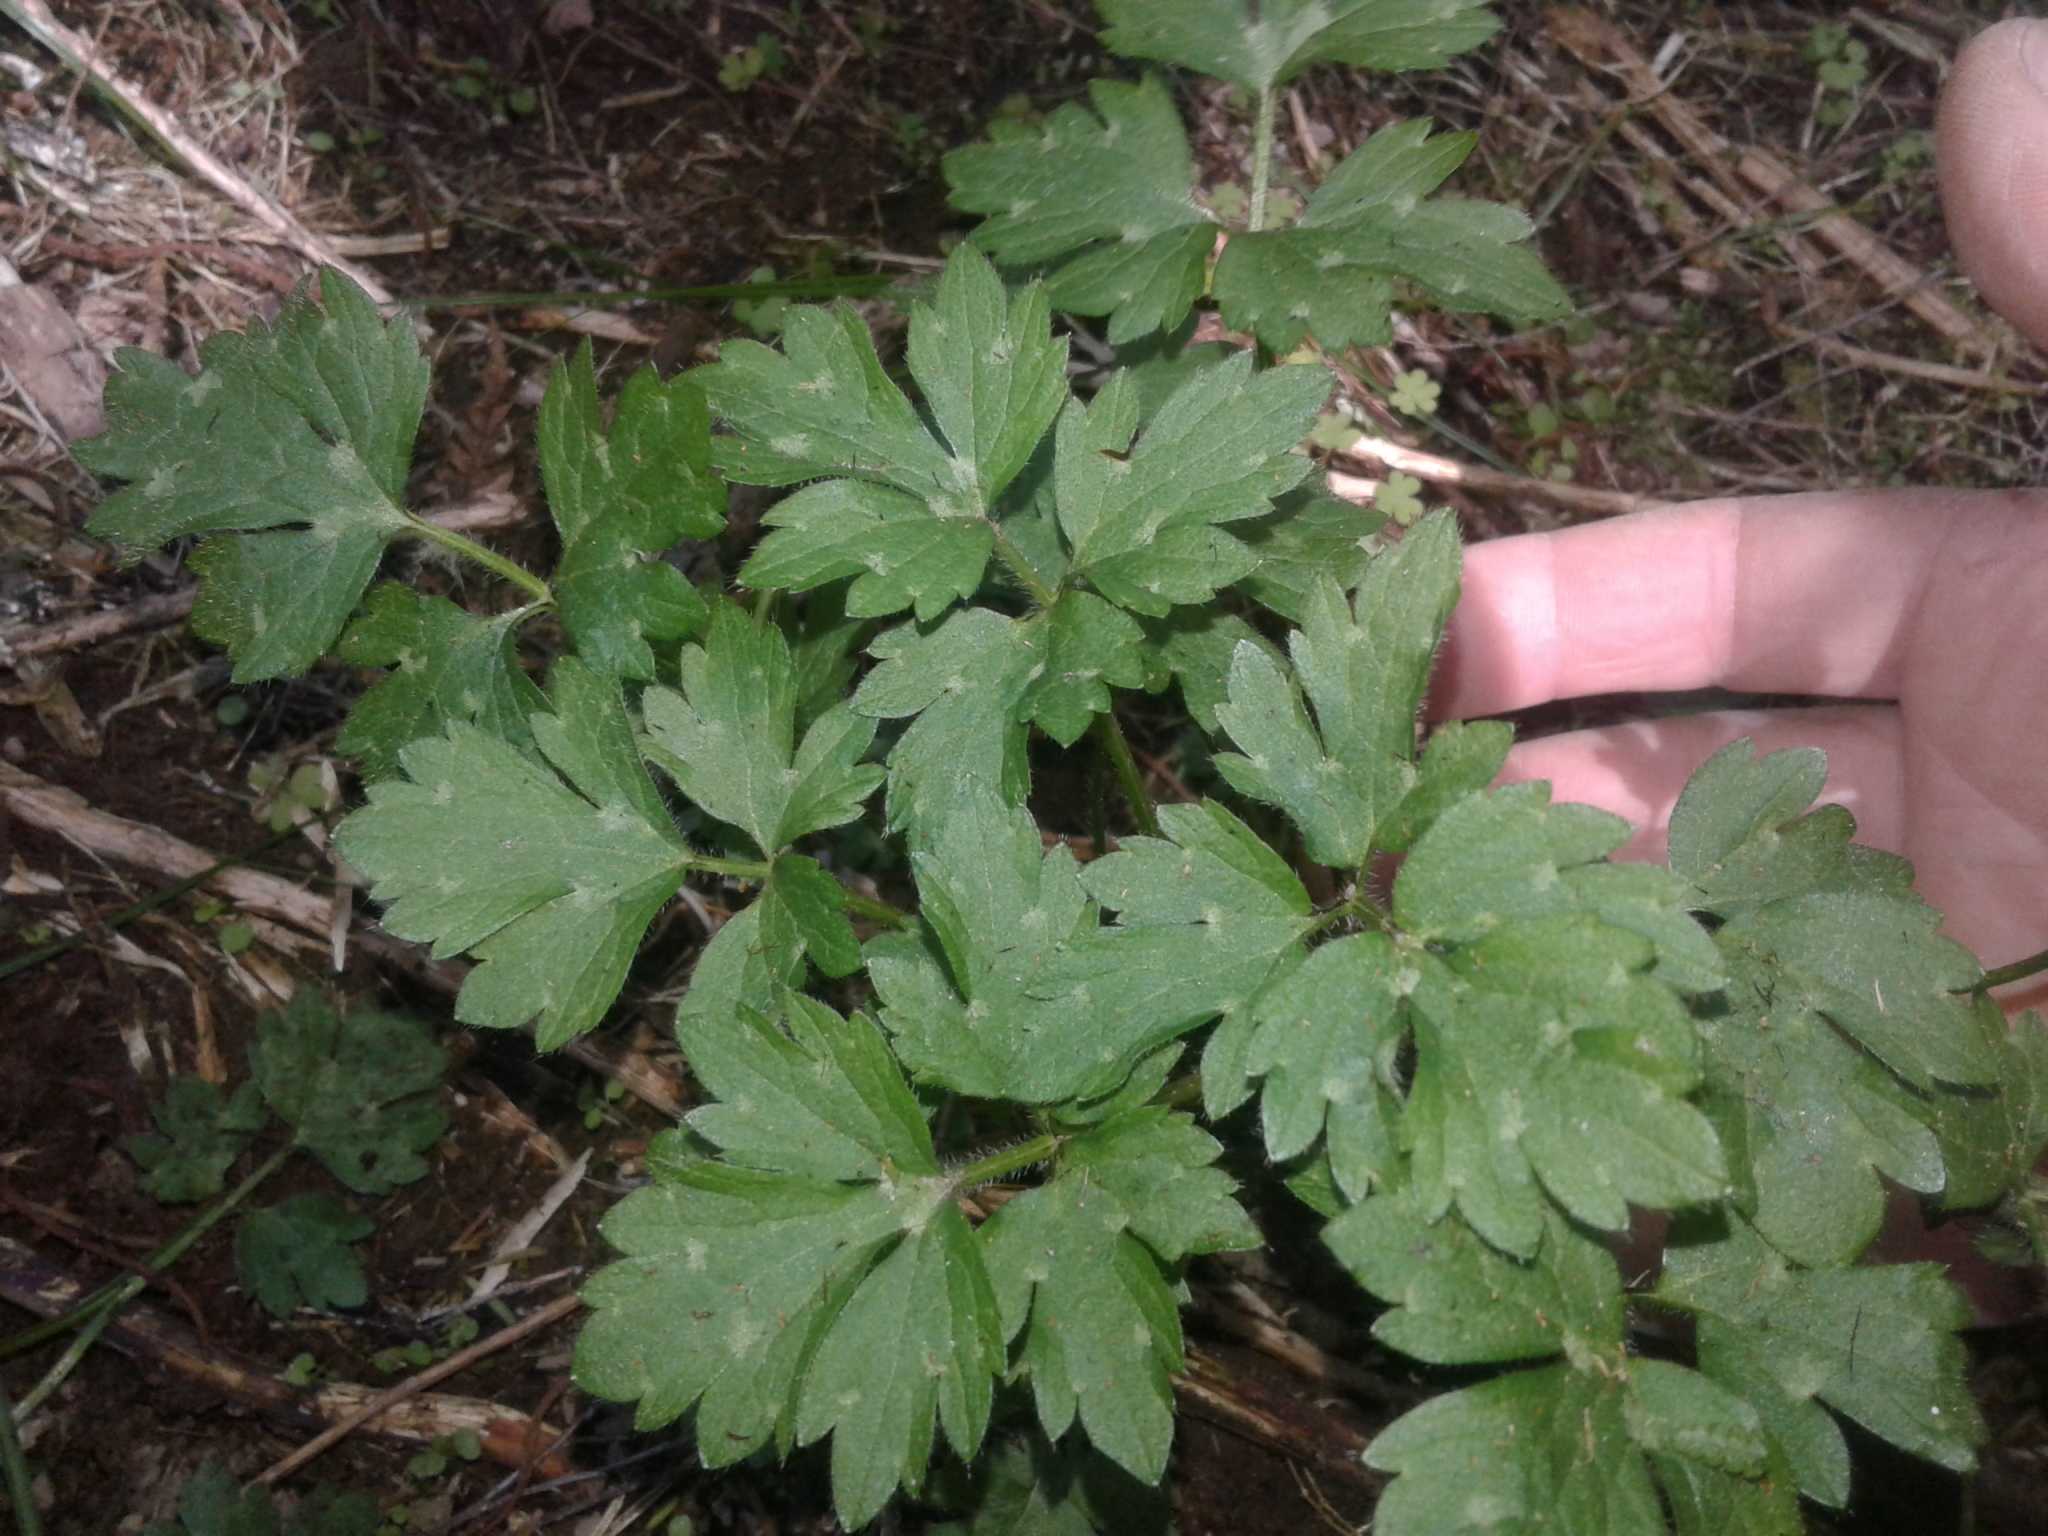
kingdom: Plantae
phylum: Tracheophyta
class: Magnoliopsida
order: Ranunculales
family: Ranunculaceae
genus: Ranunculus
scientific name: Ranunculus repens
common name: Creeping buttercup
